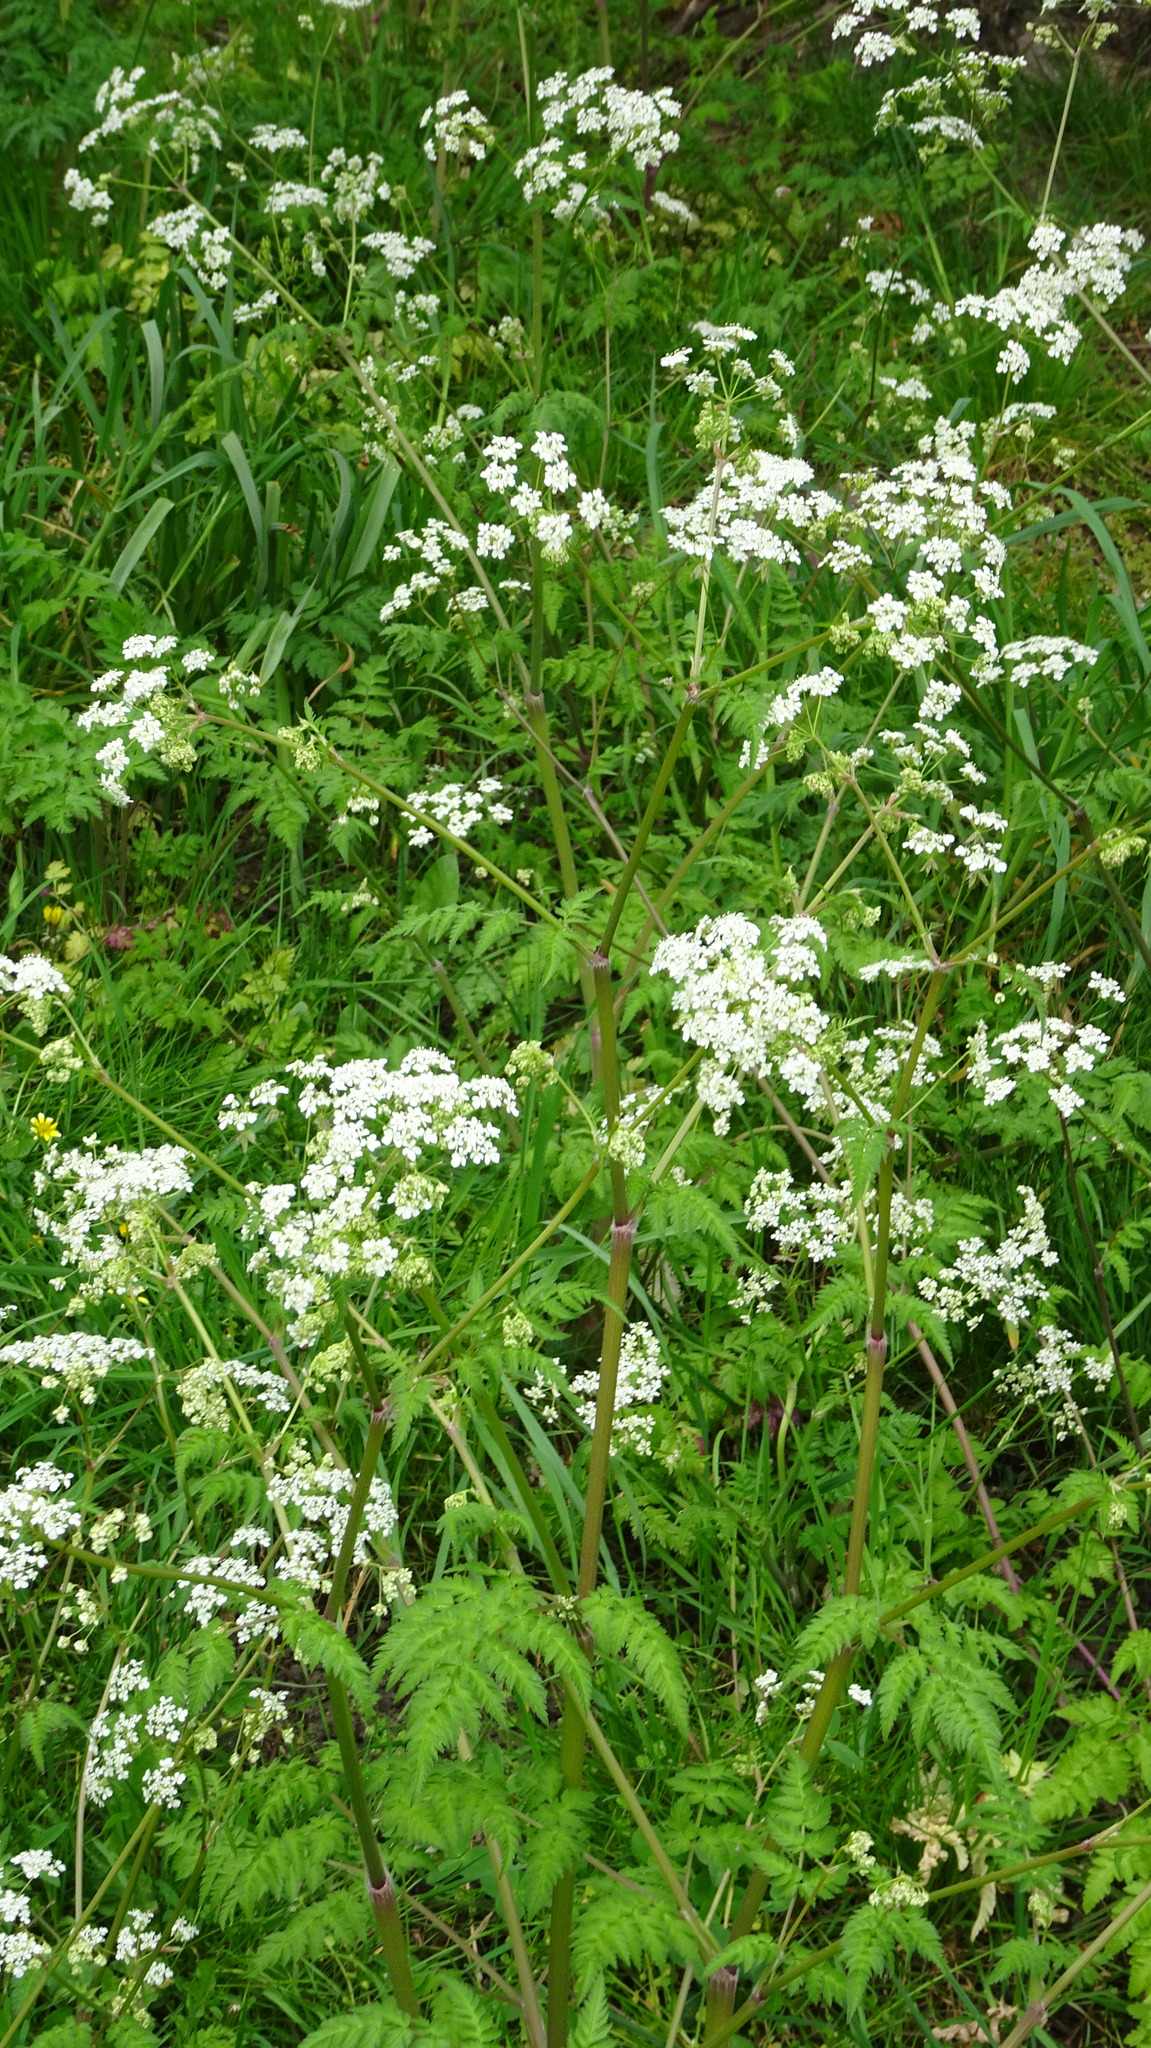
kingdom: Plantae
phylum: Tracheophyta
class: Magnoliopsida
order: Apiales
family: Apiaceae
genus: Anthriscus
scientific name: Anthriscus sylvestris
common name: Cow parsley
